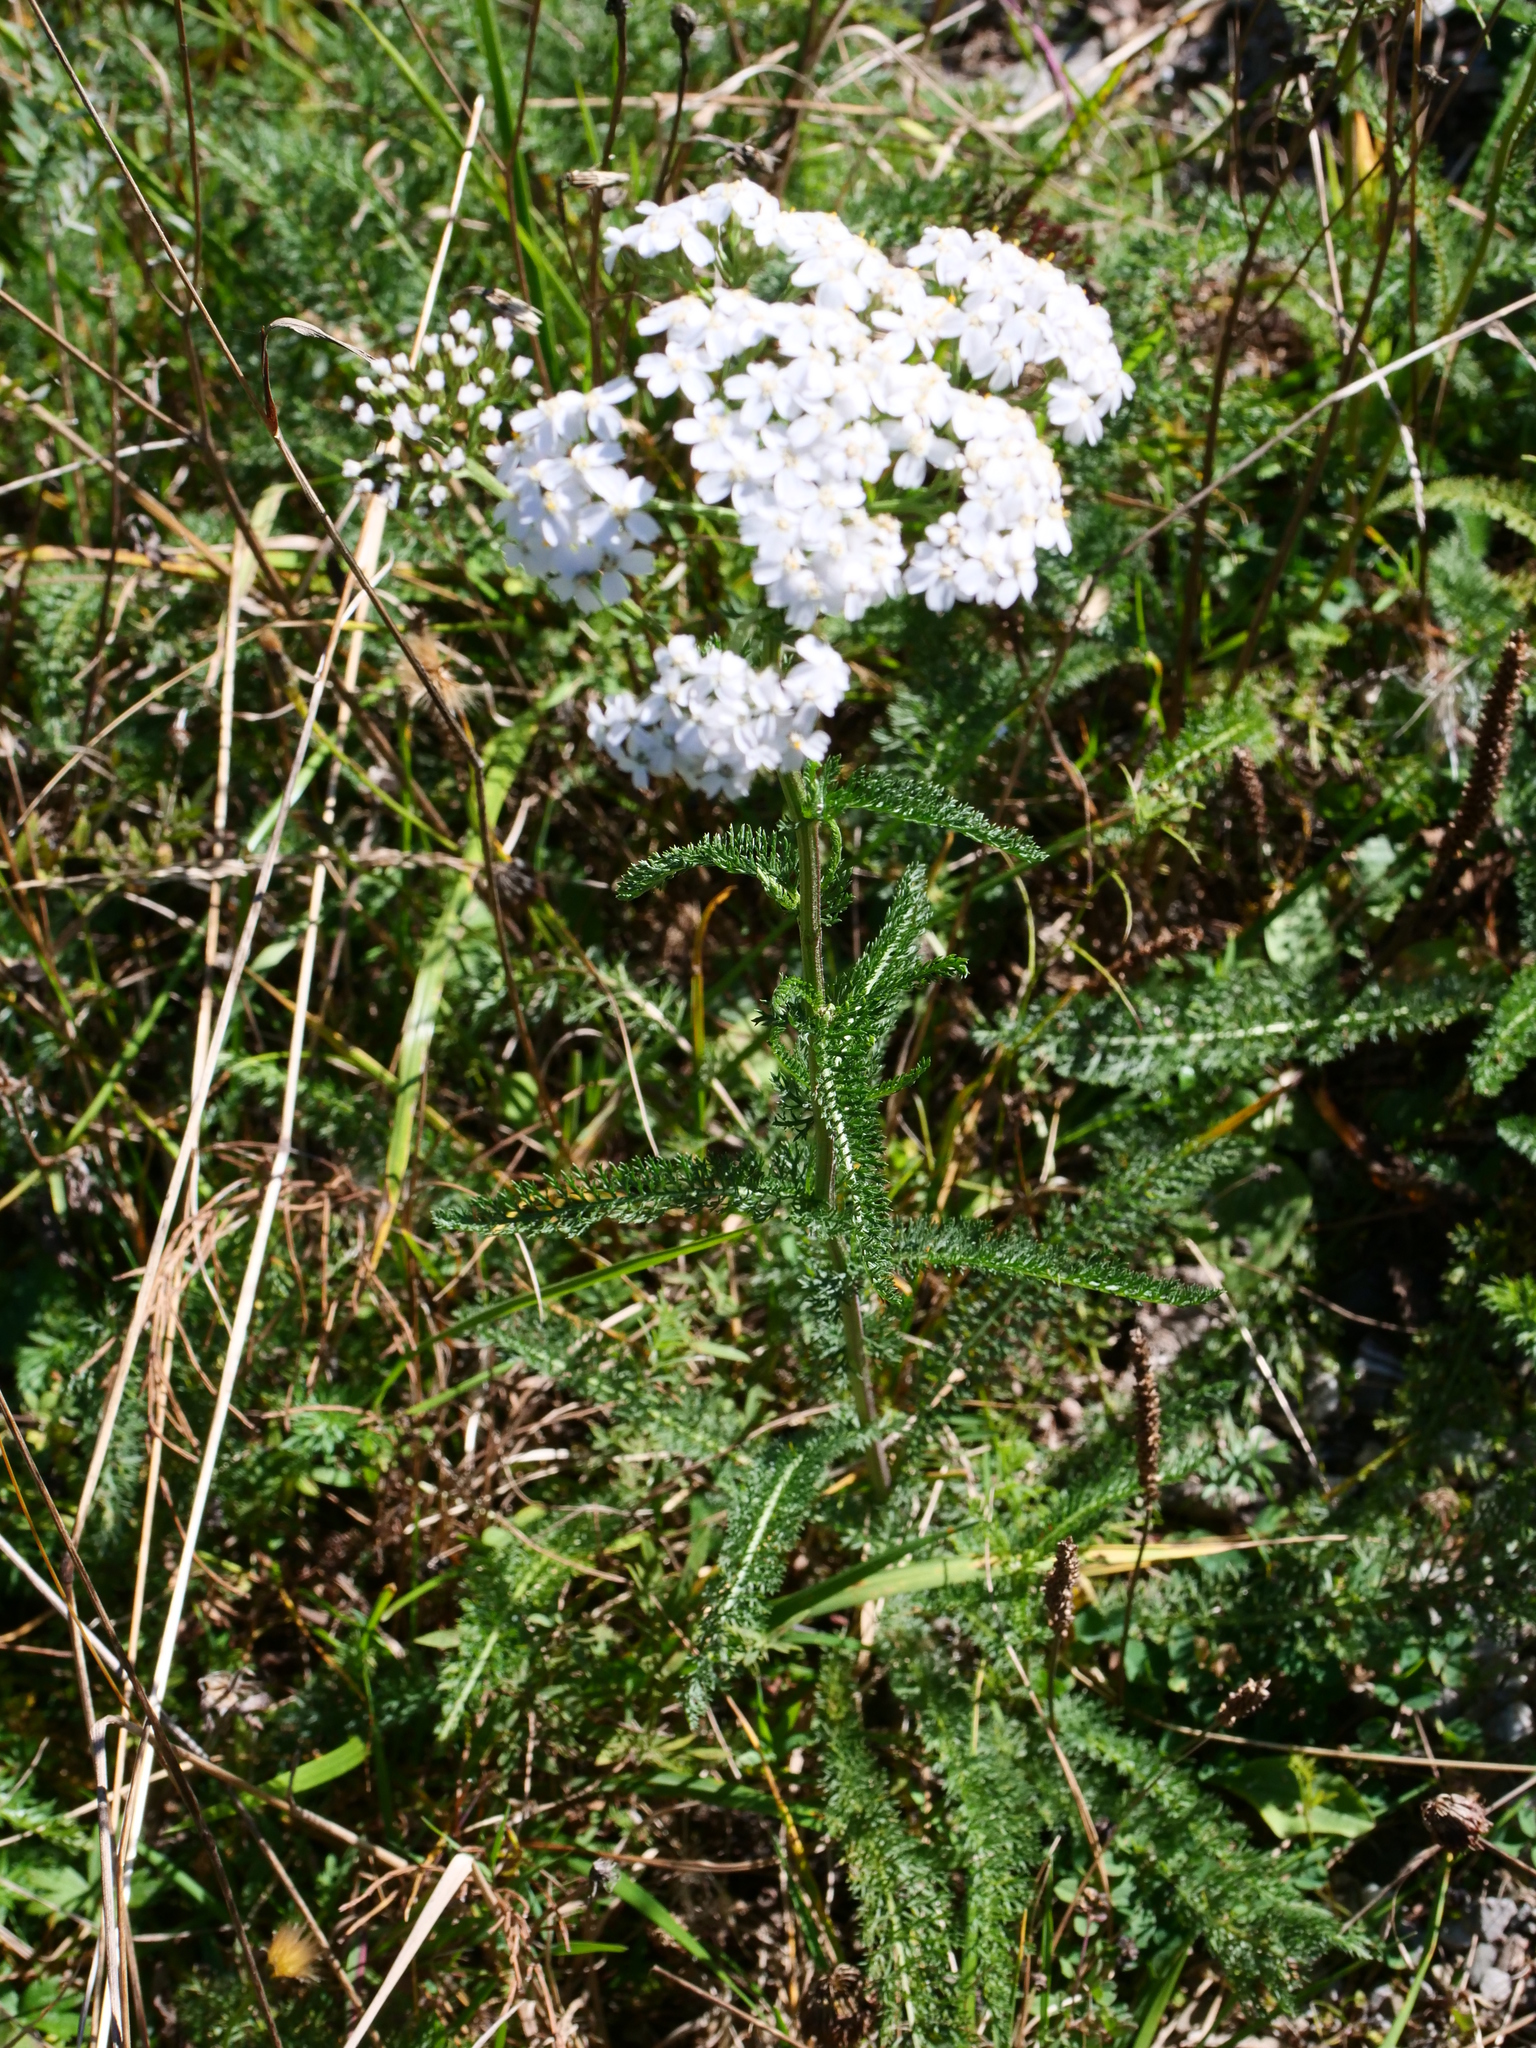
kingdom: Plantae
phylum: Tracheophyta
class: Magnoliopsida
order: Asterales
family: Asteraceae
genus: Achillea
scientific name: Achillea
